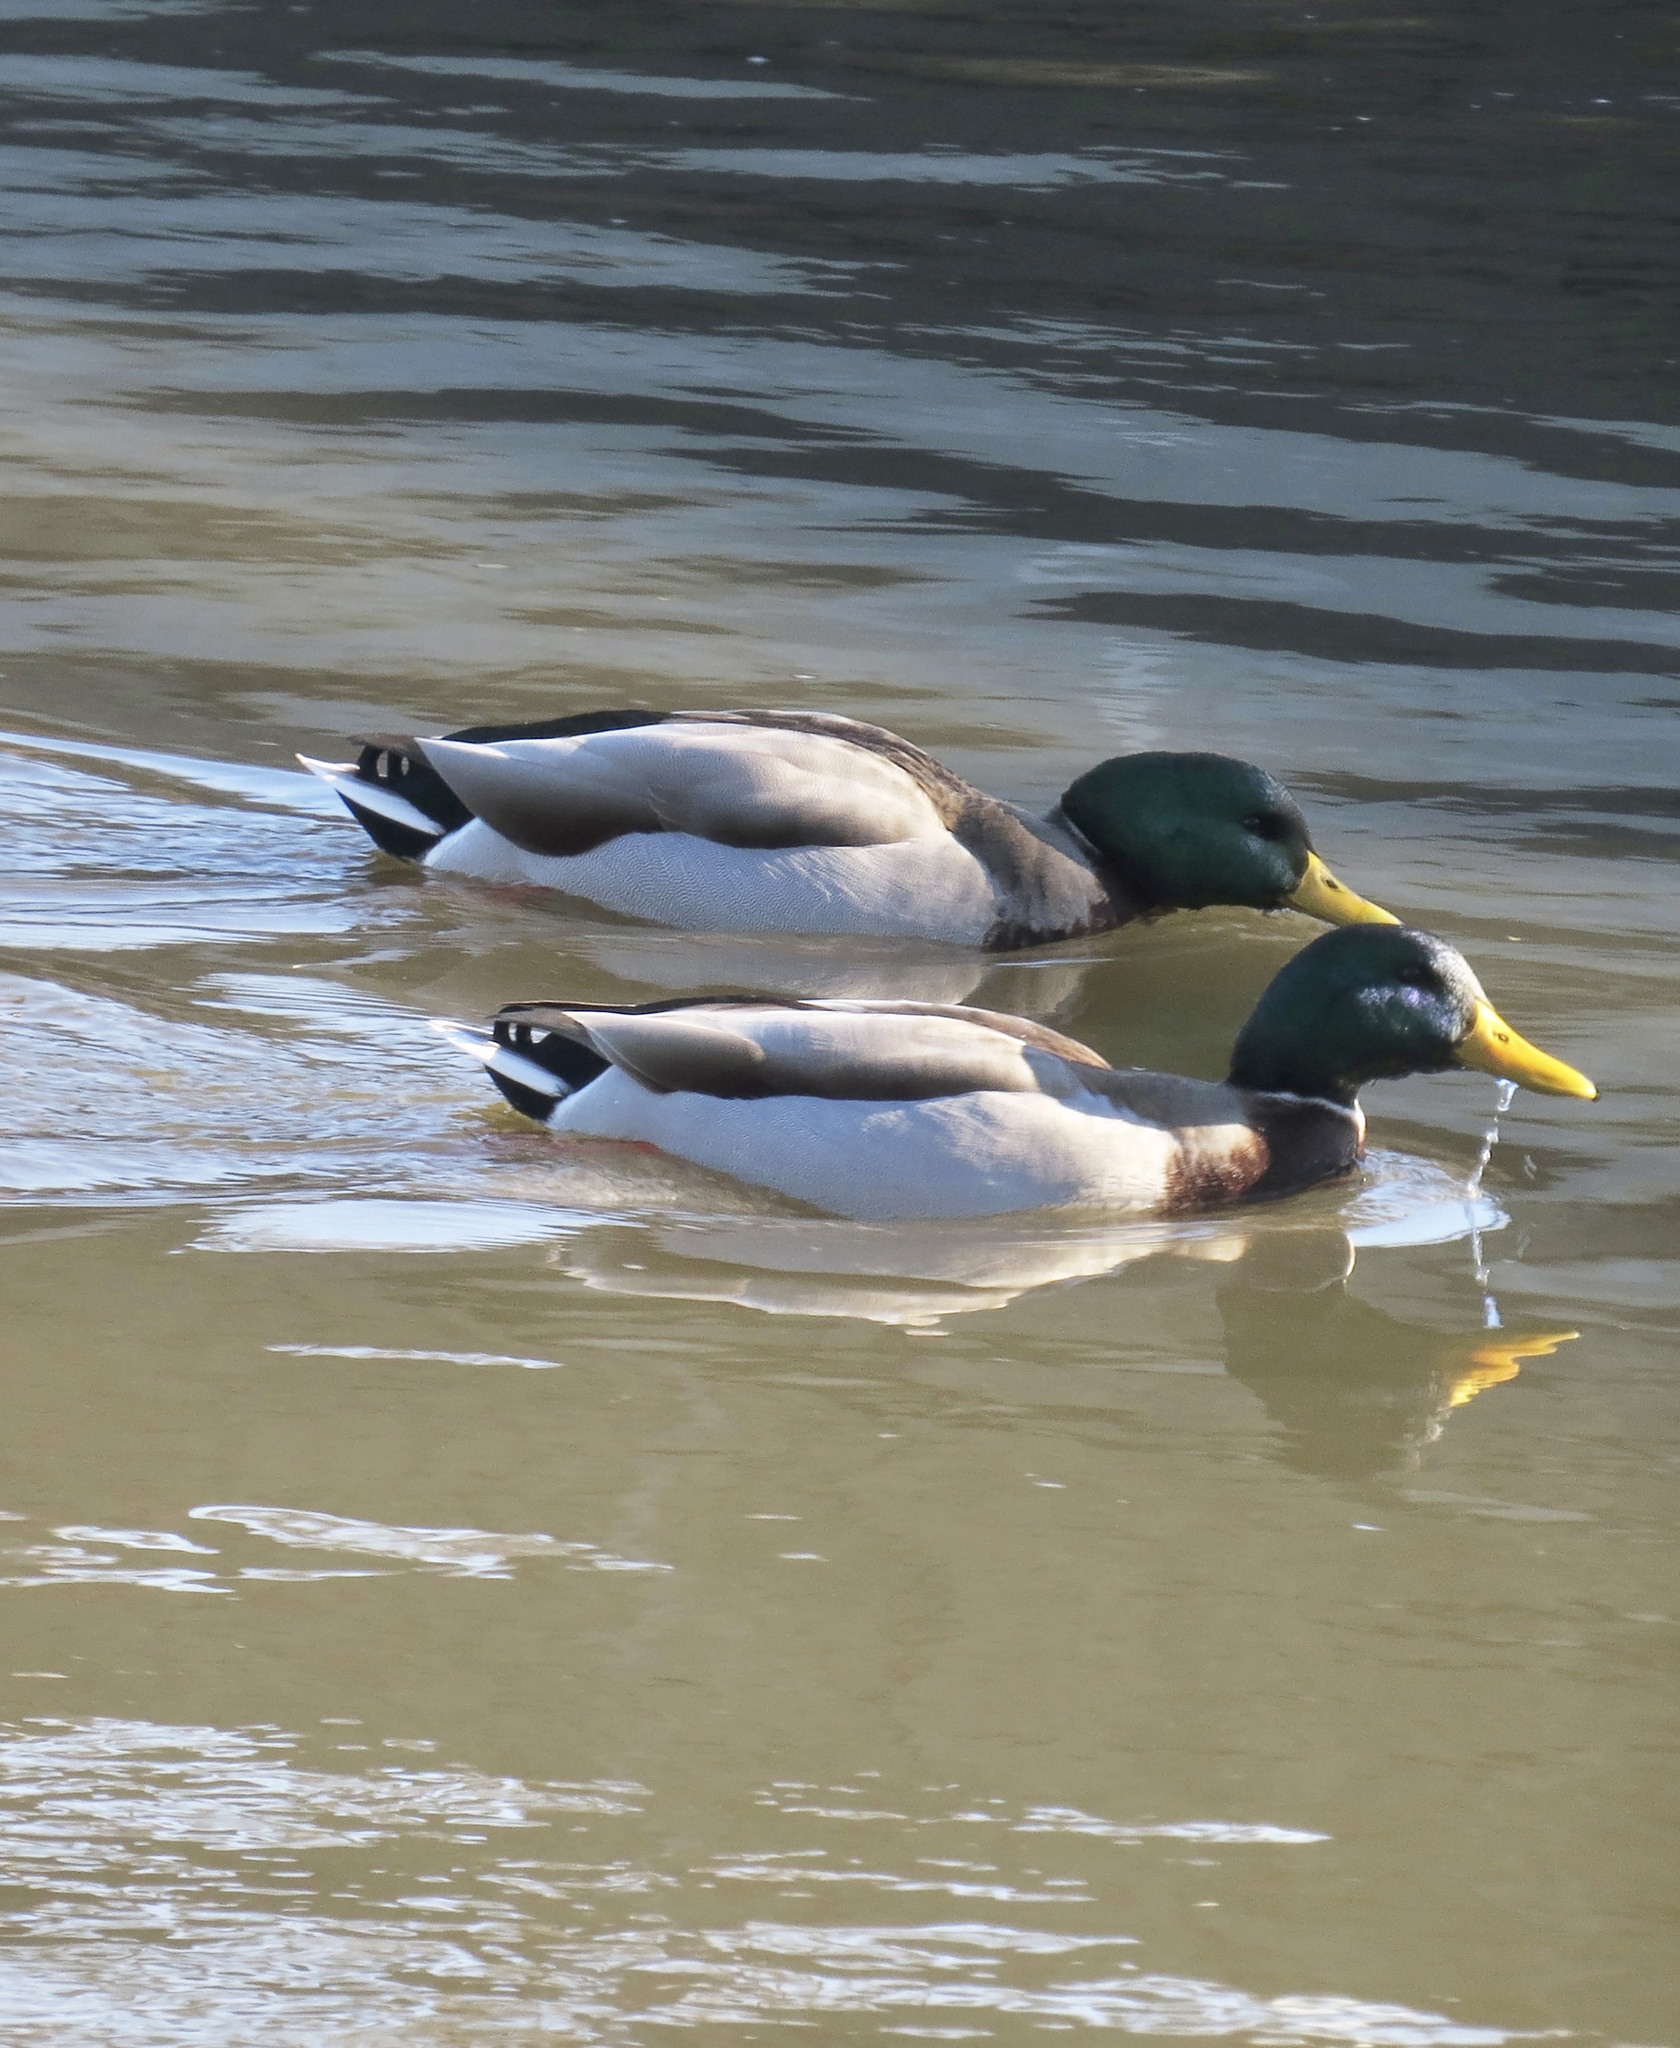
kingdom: Animalia
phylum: Chordata
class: Aves
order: Anseriformes
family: Anatidae
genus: Anas
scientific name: Anas platyrhynchos
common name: Mallard
